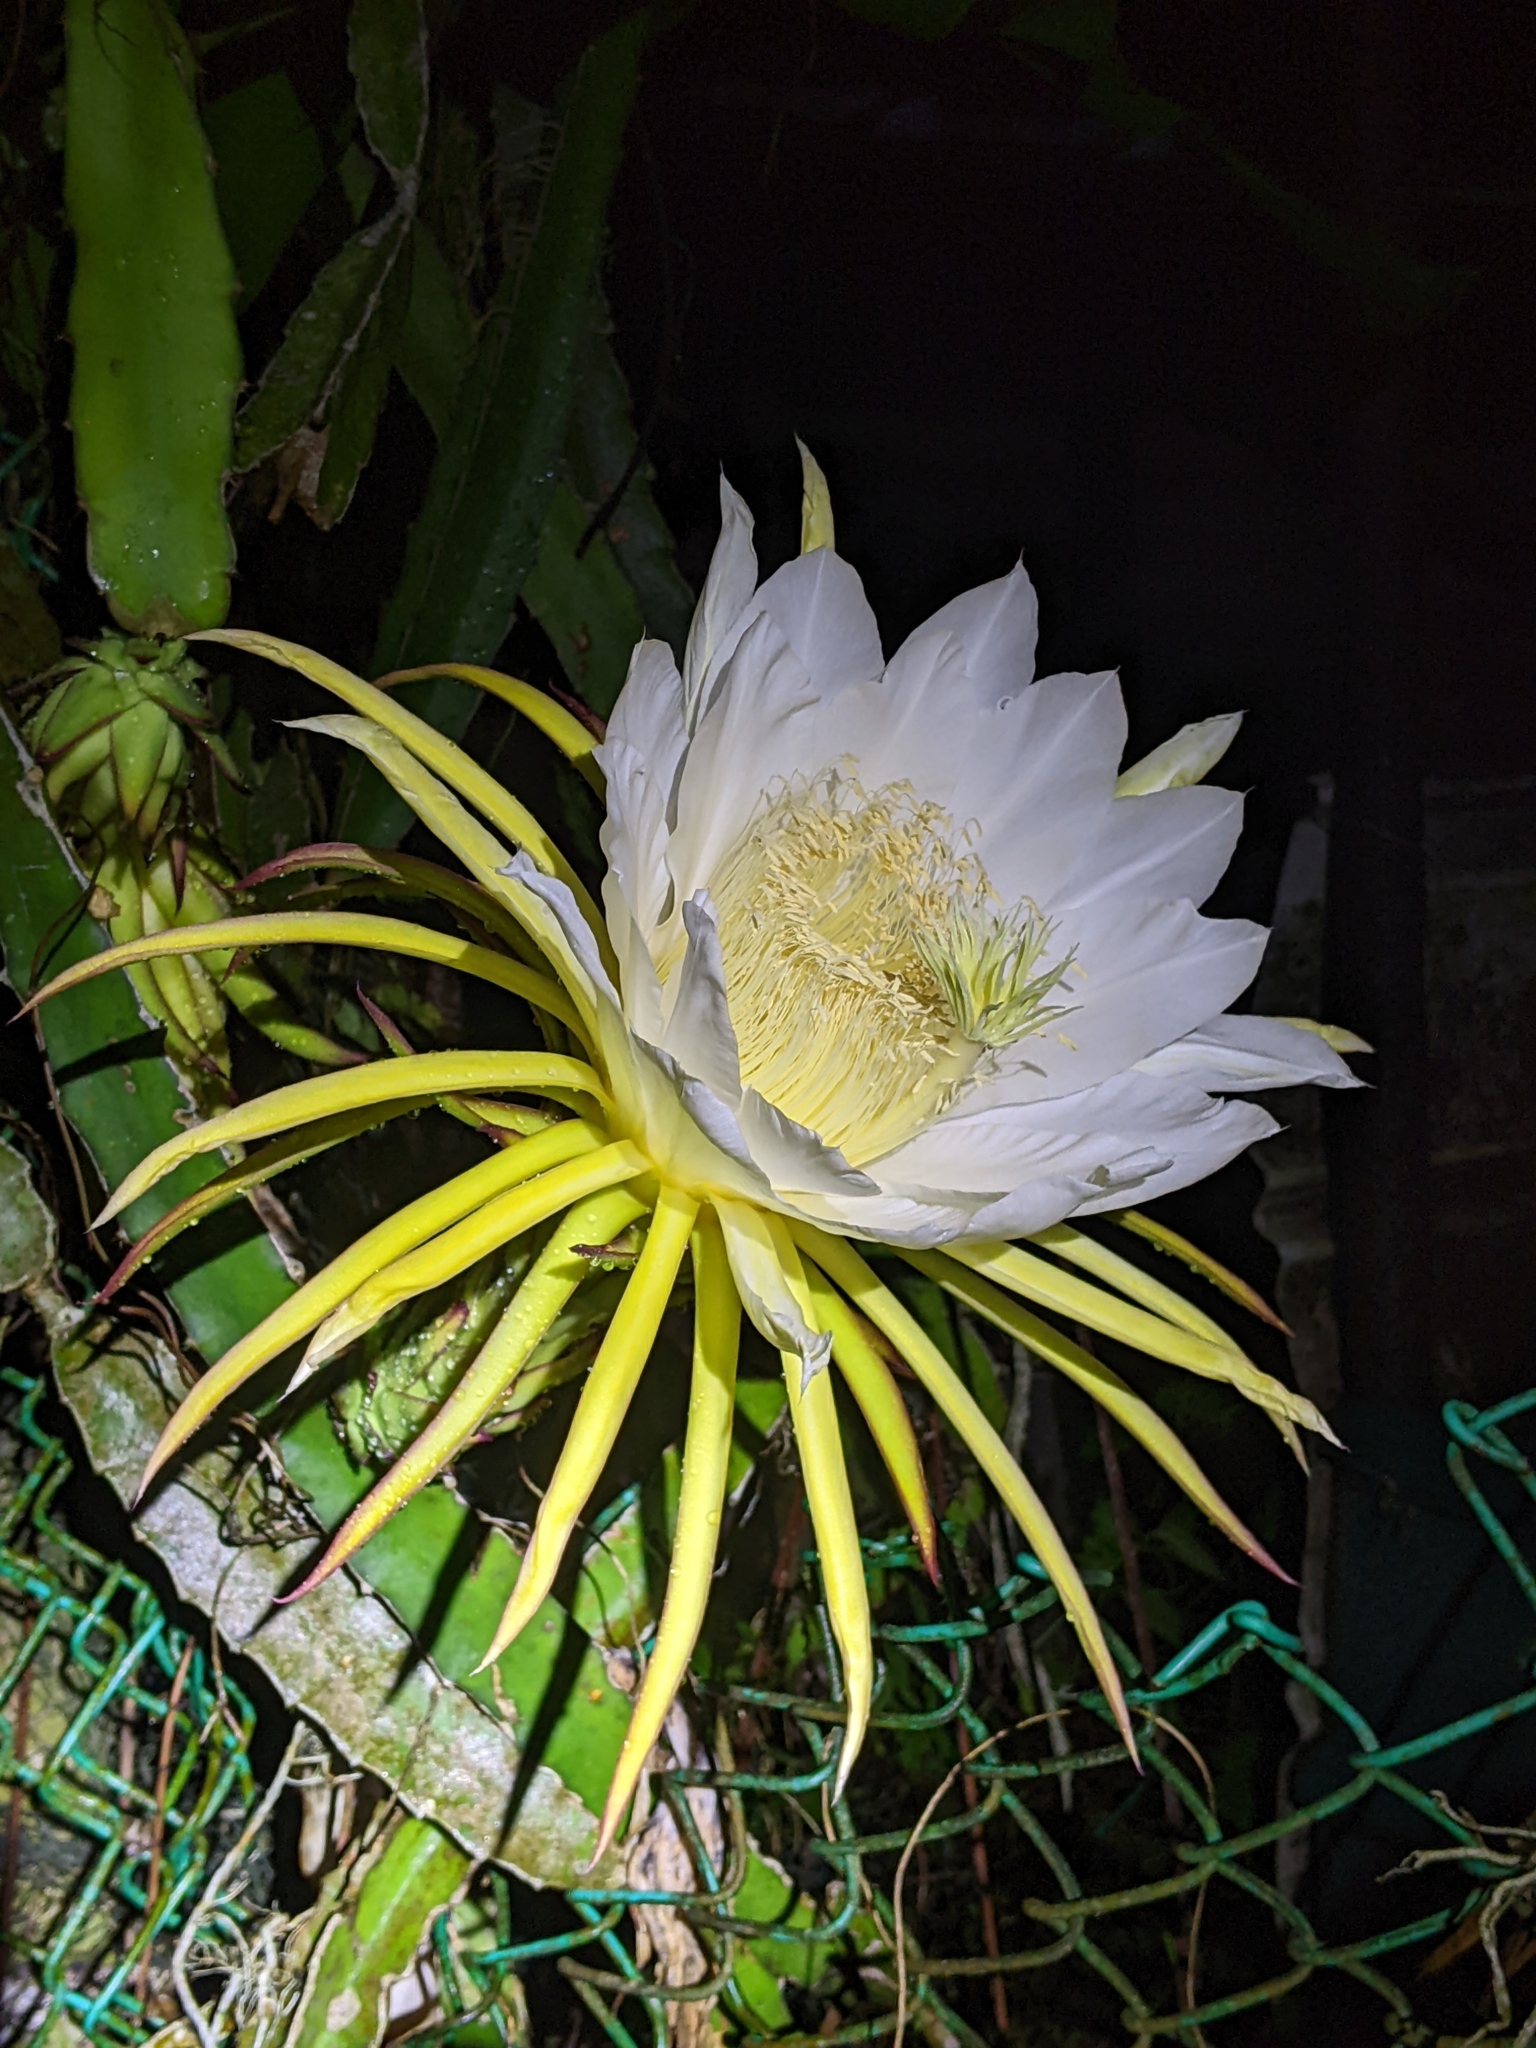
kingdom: Plantae
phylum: Tracheophyta
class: Magnoliopsida
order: Caryophyllales
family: Cactaceae
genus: Selenicereus
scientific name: Selenicereus undatus
